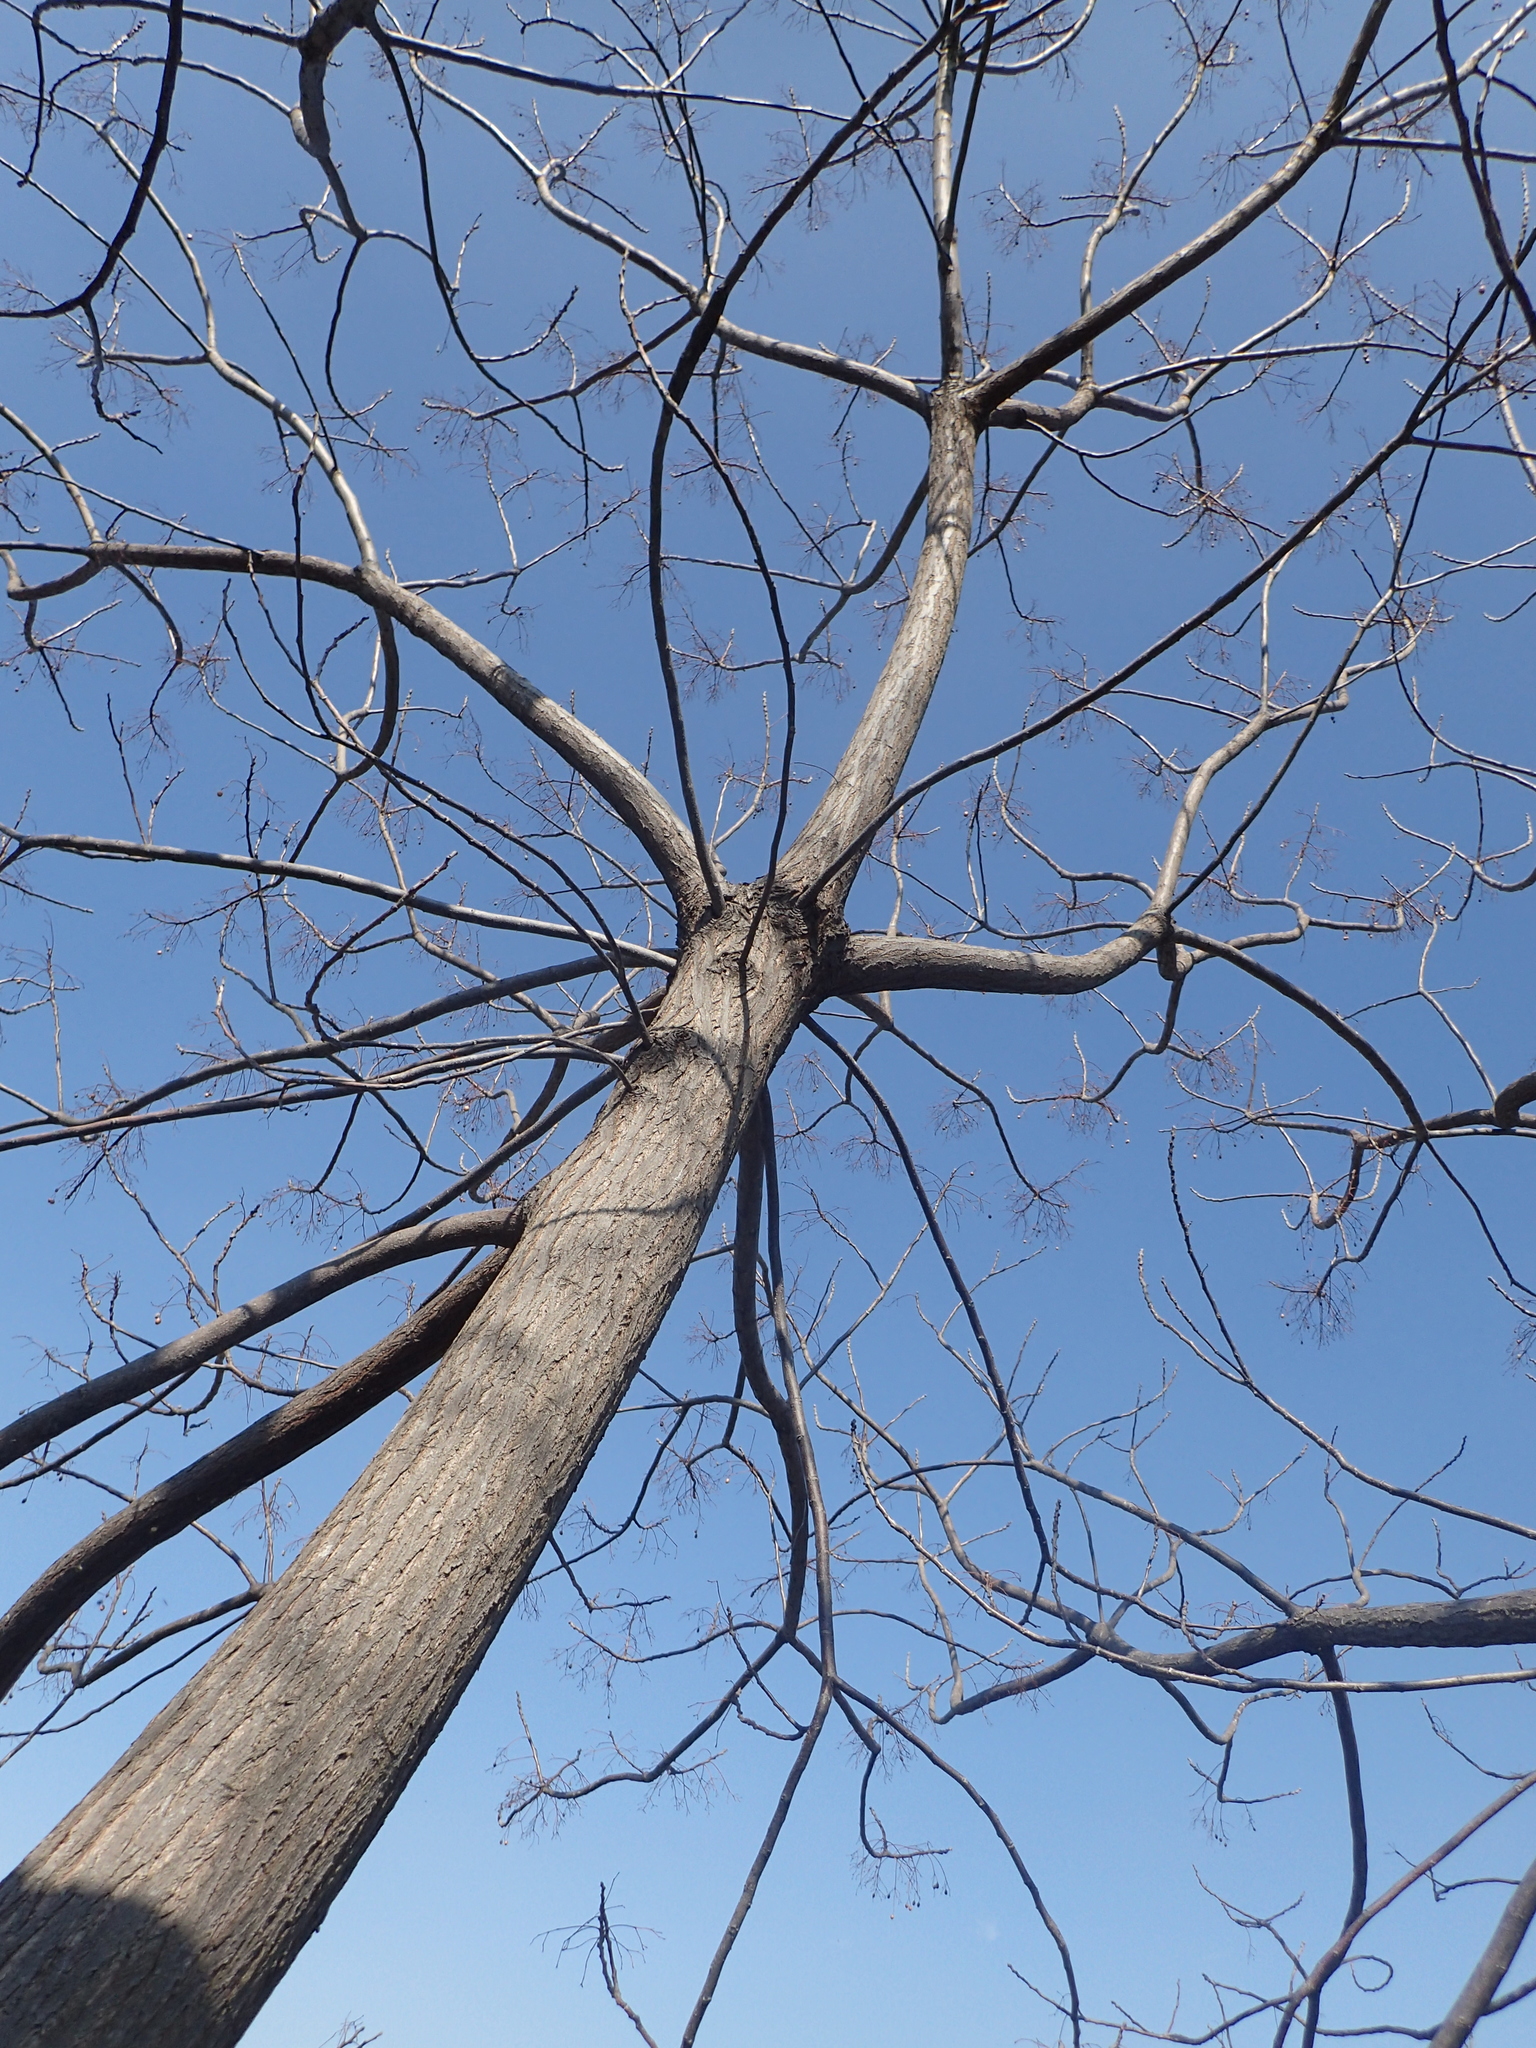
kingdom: Plantae
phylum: Tracheophyta
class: Magnoliopsida
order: Sapindales
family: Meliaceae
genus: Melia
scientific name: Melia azedarach
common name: Chinaberrytree
